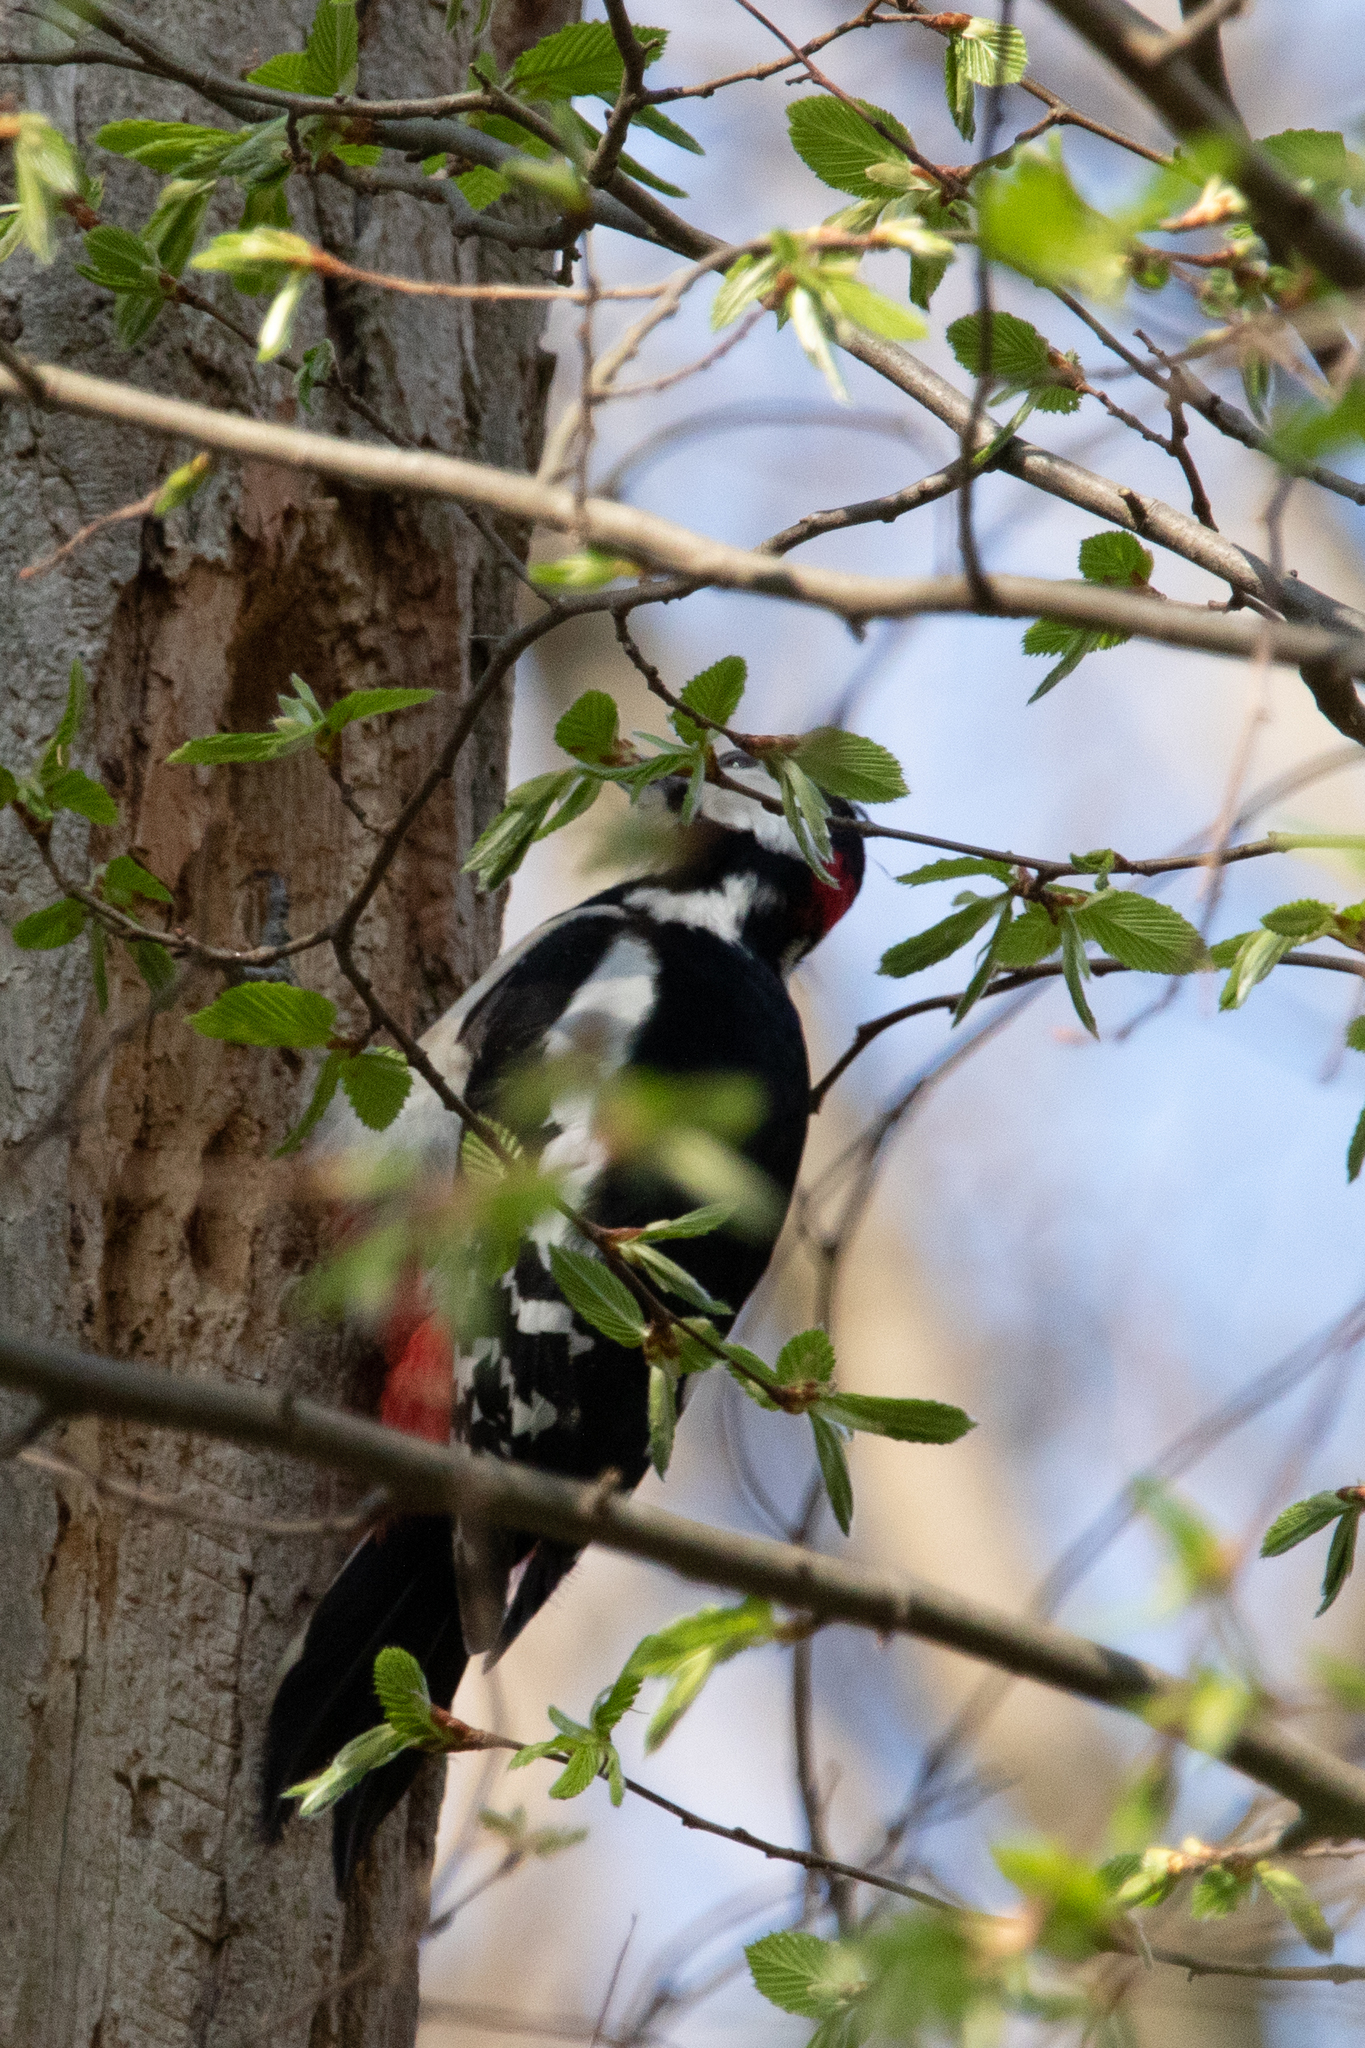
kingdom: Animalia
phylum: Chordata
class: Aves
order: Piciformes
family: Picidae
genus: Dendrocopos
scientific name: Dendrocopos major
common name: Great spotted woodpecker
